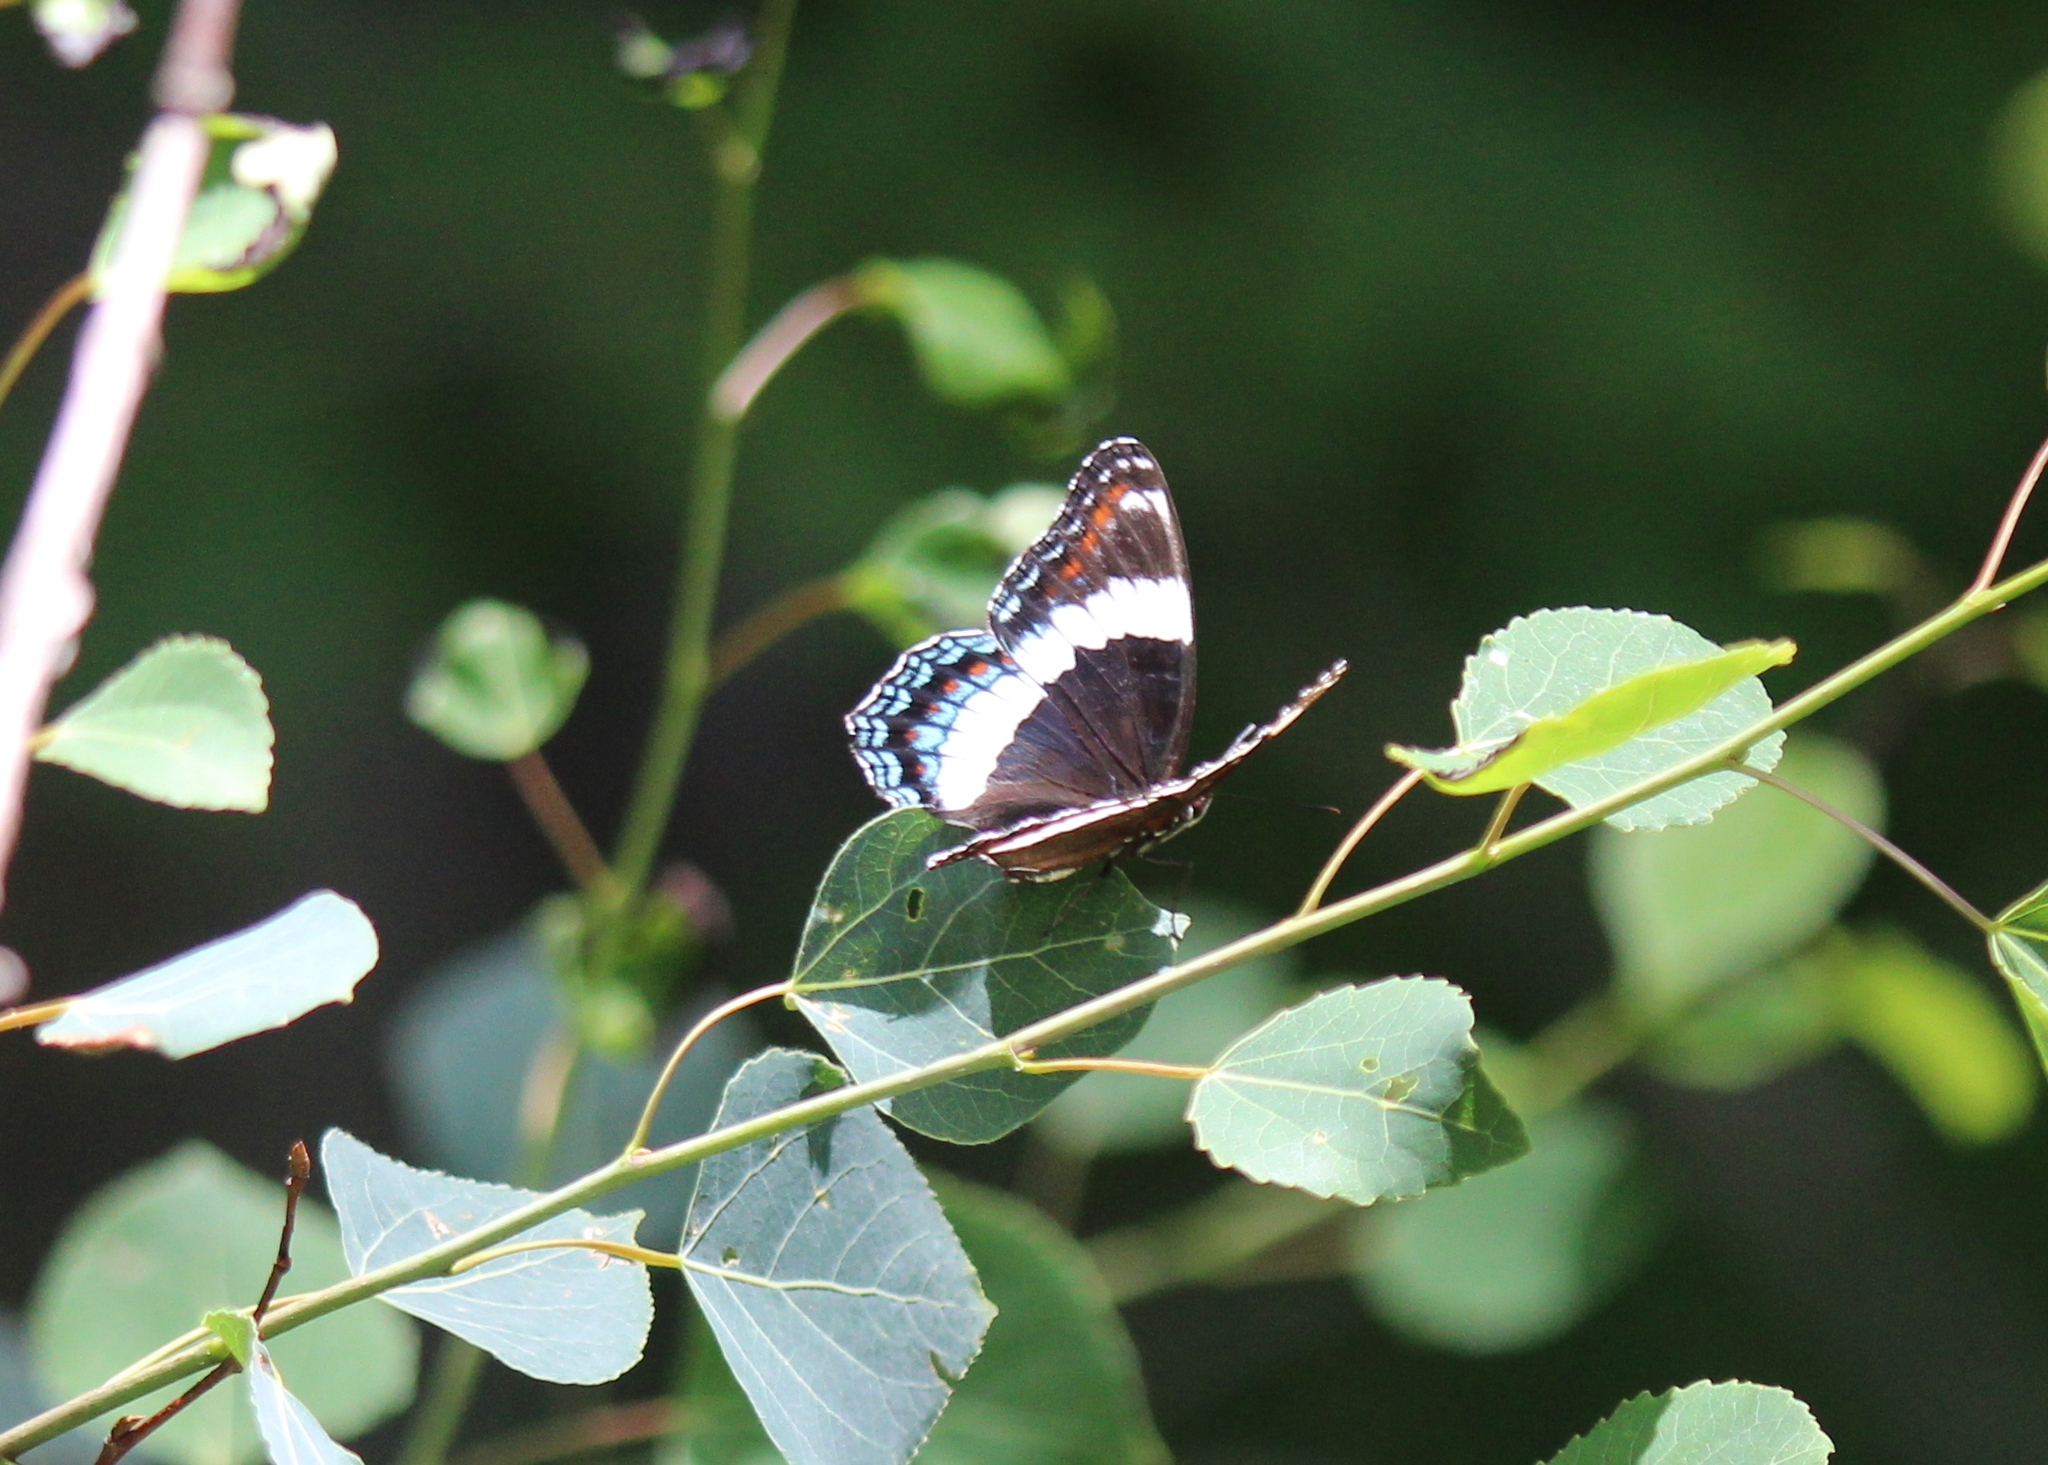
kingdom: Animalia
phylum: Arthropoda
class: Insecta
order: Lepidoptera
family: Nymphalidae
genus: Limenitis
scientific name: Limenitis
